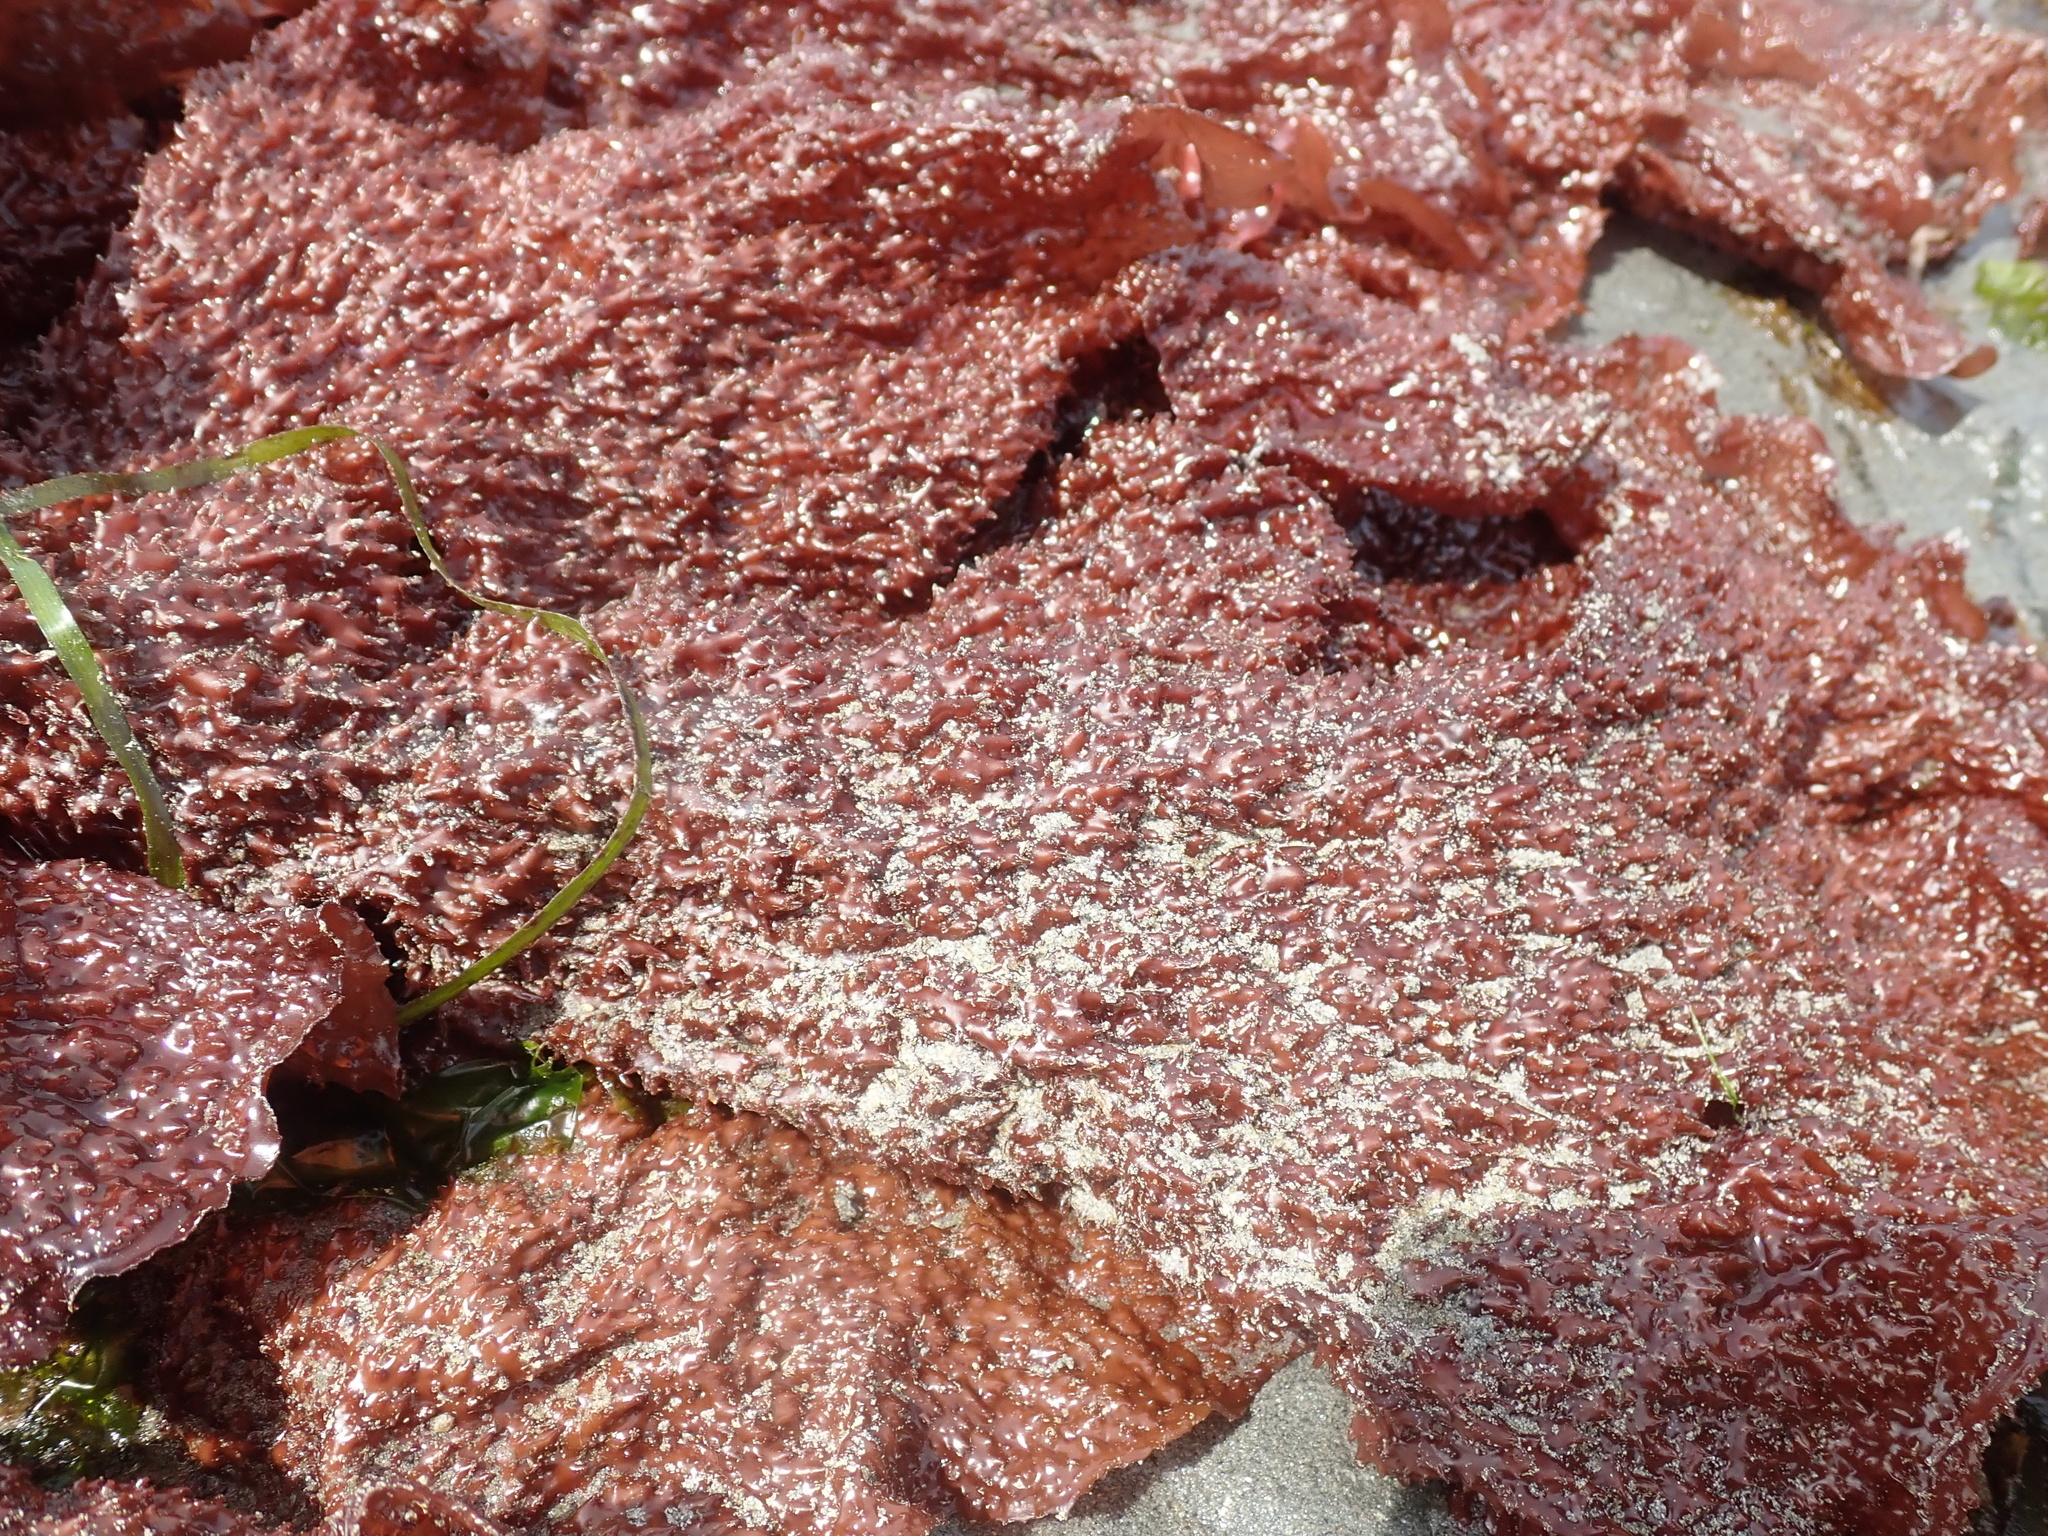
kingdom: Plantae
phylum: Rhodophyta
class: Florideophyceae
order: Gigartinales
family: Gigartinaceae
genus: Chondracanthus
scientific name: Chondracanthus exasperatus
